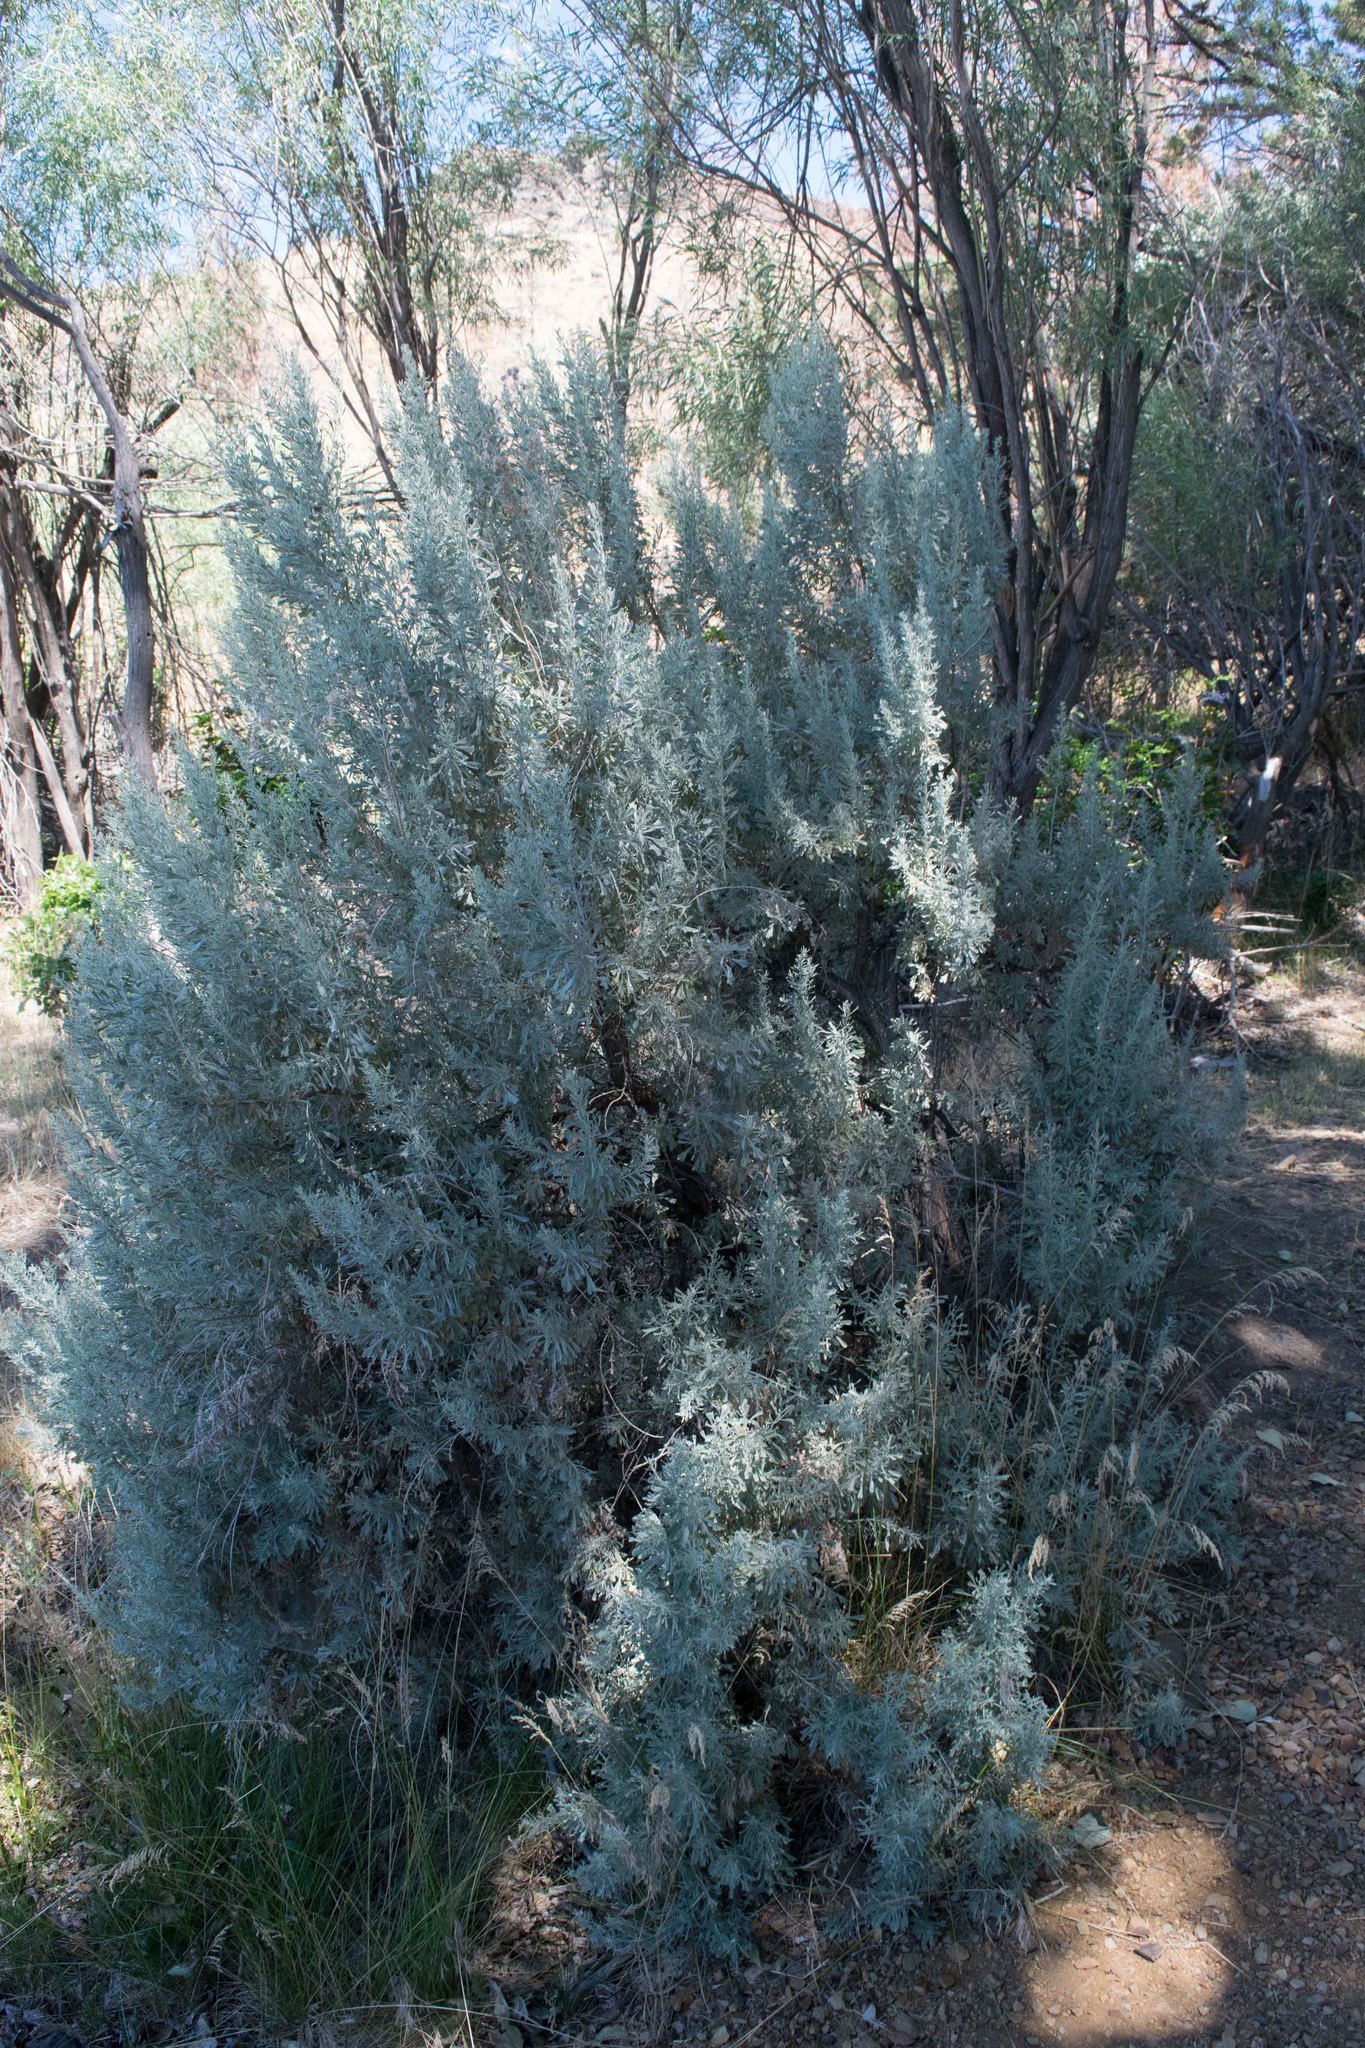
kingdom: Plantae
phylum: Tracheophyta
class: Magnoliopsida
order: Asterales
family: Asteraceae
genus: Artemisia
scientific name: Artemisia tridentata
